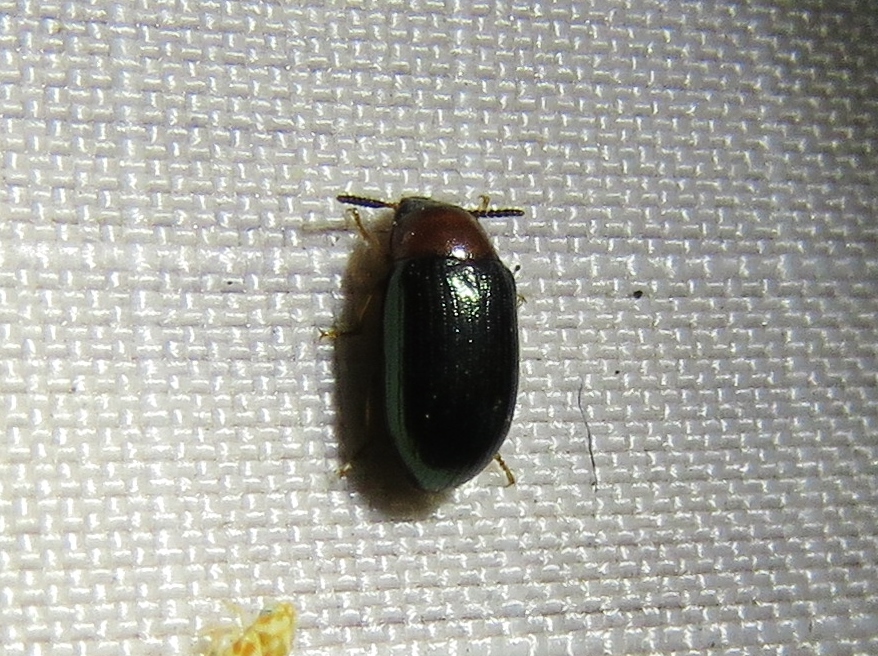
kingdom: Animalia
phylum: Arthropoda
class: Insecta
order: Coleoptera
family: Tenebrionidae
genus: Neomida
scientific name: Neomida bicornis
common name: Two-horned darkling beetle
